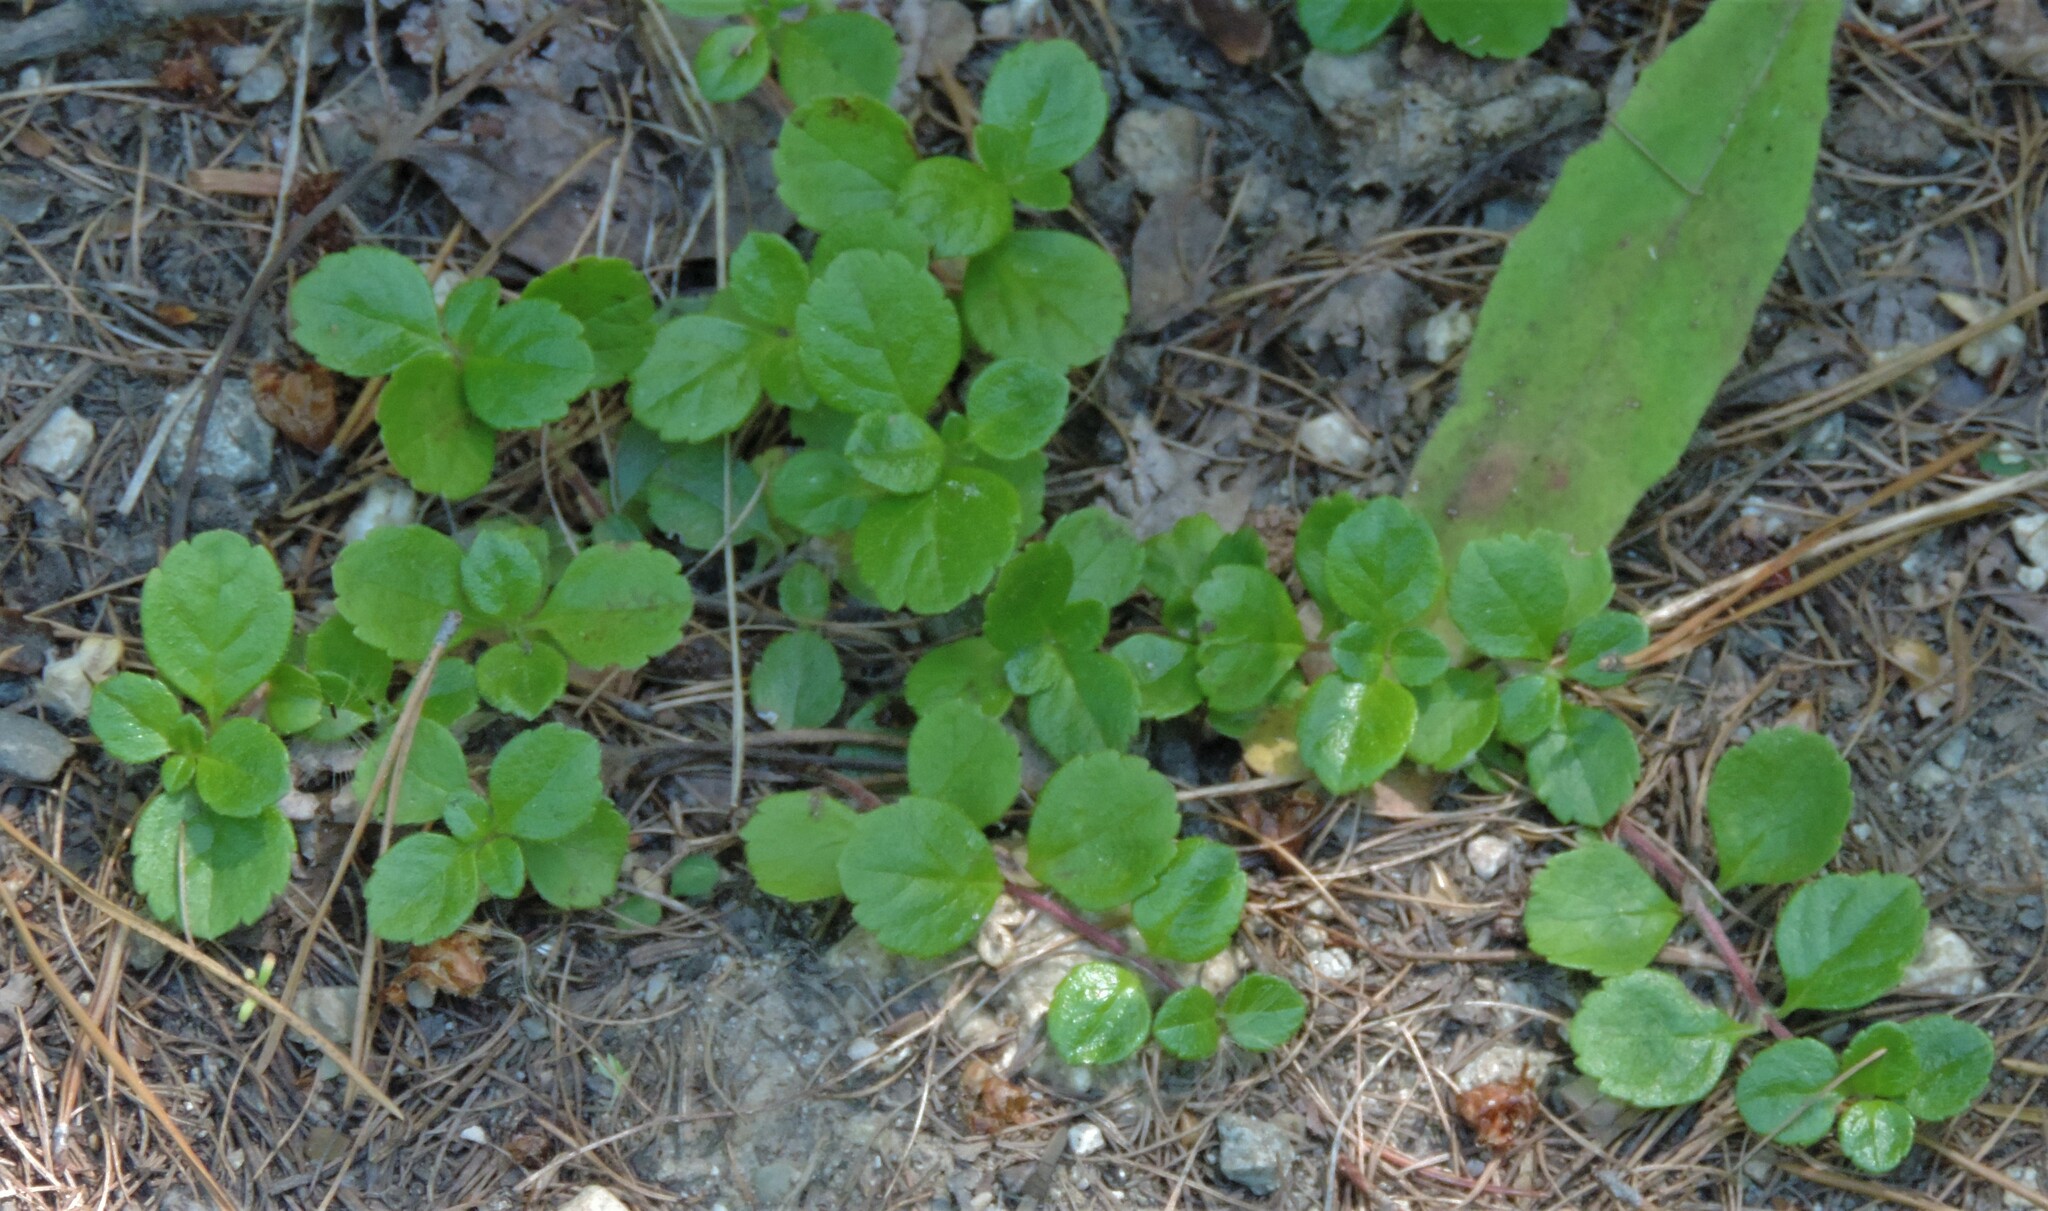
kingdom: Plantae
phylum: Tracheophyta
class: Magnoliopsida
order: Dipsacales
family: Caprifoliaceae
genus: Linnaea
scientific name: Linnaea borealis
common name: Twinflower
